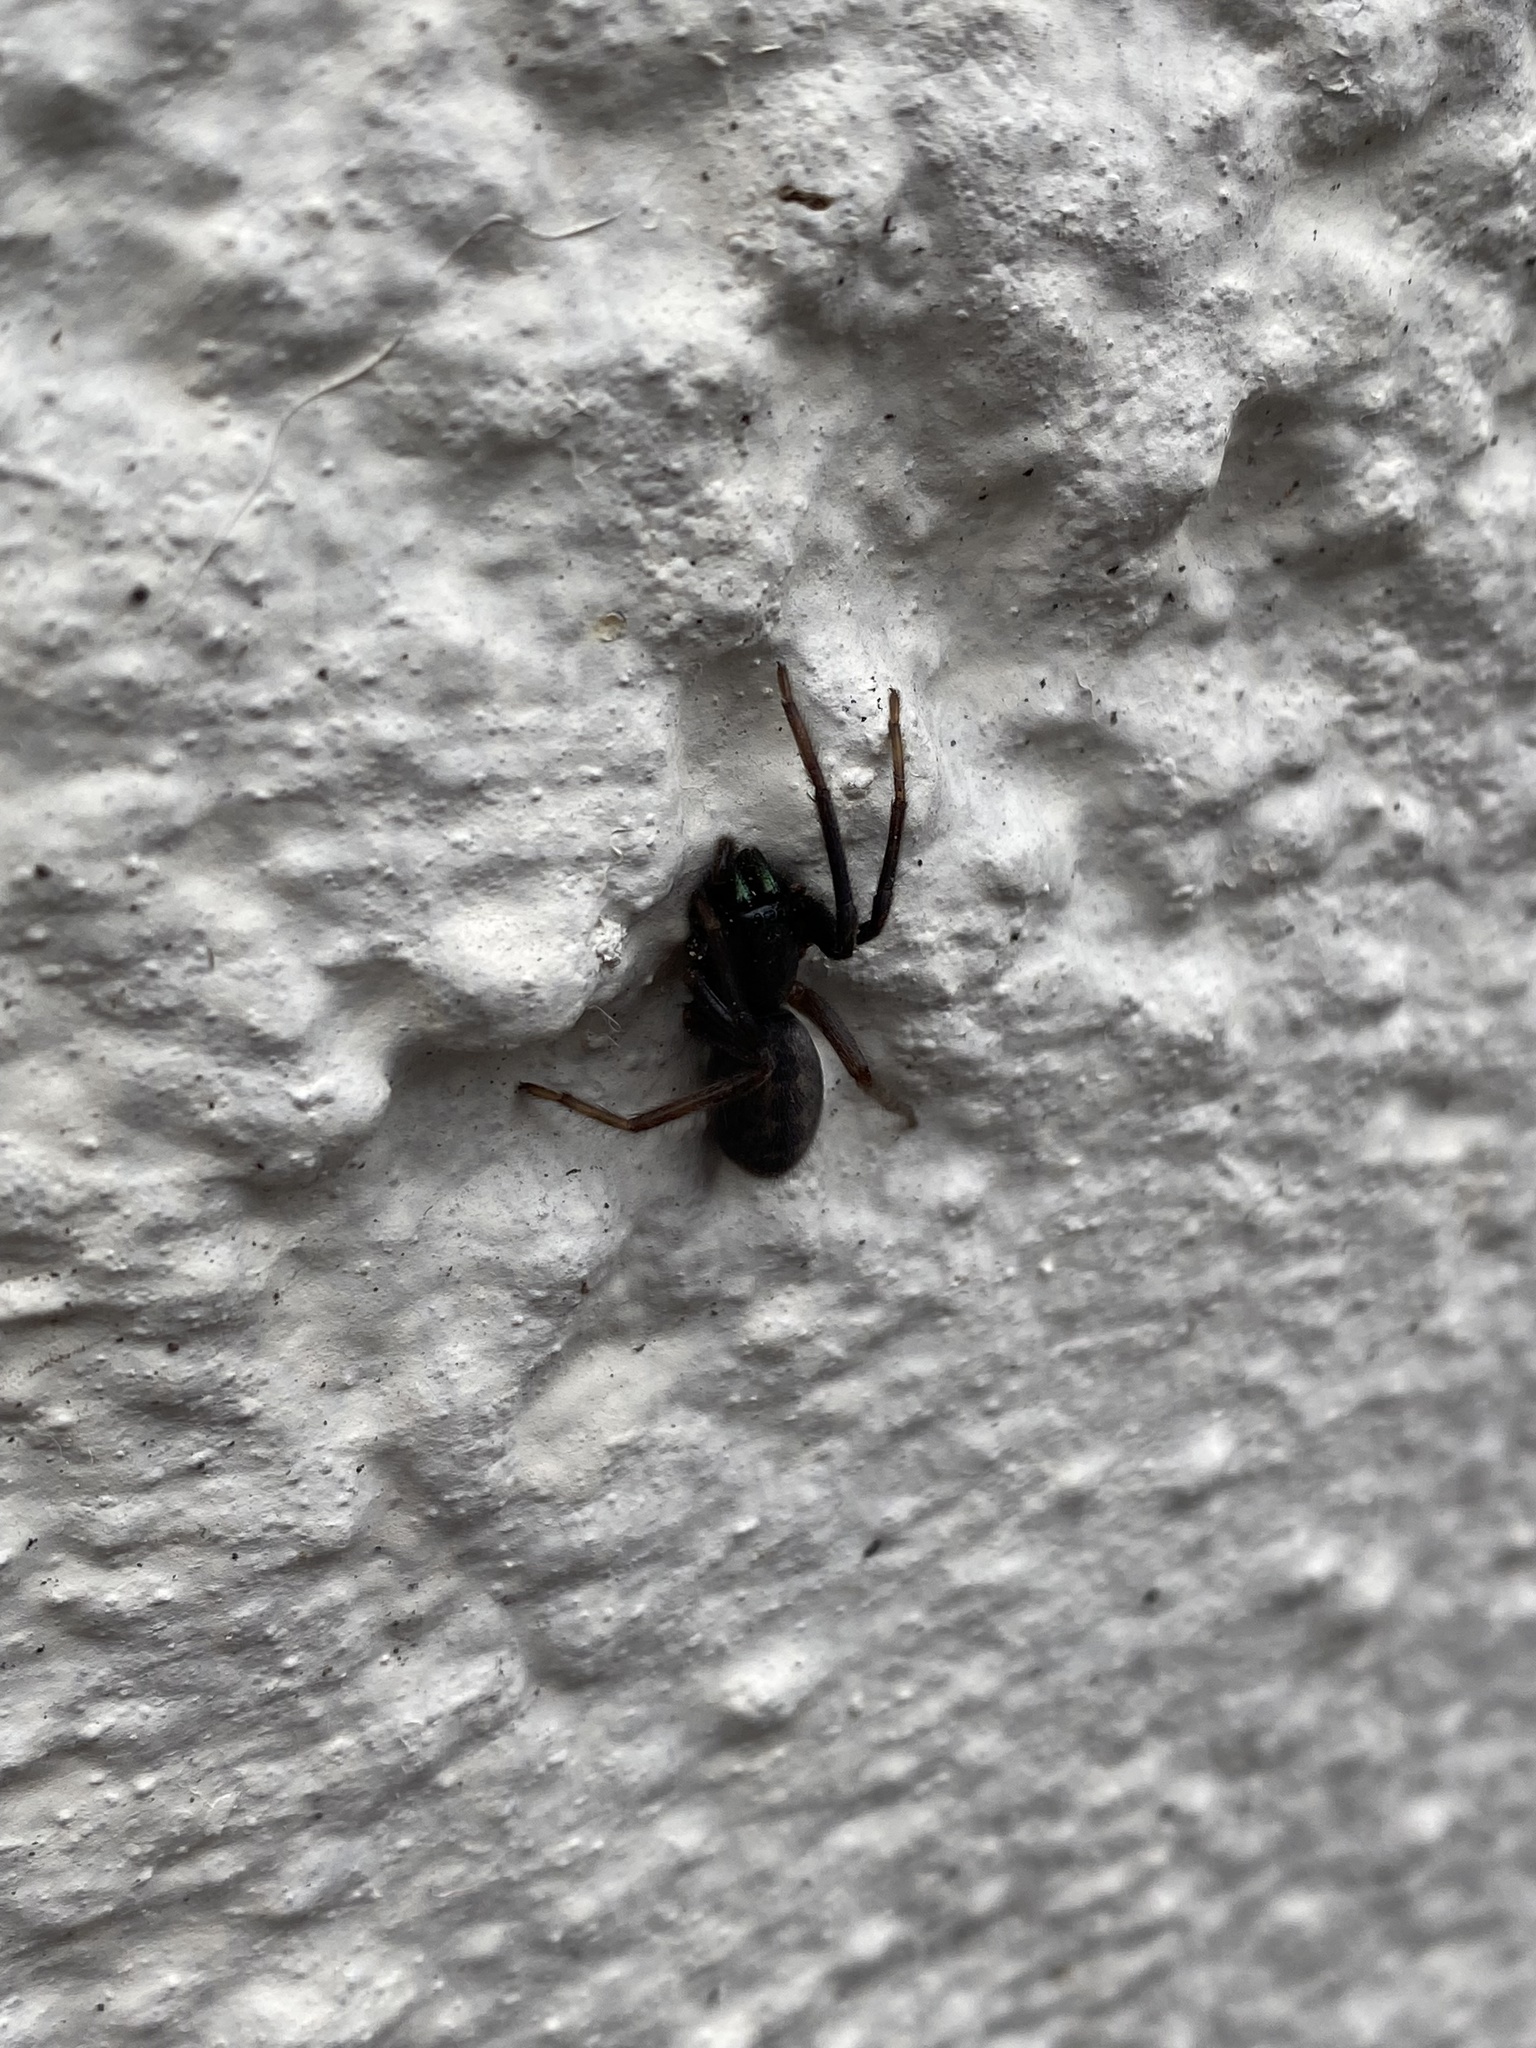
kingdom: Animalia
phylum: Arthropoda
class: Arachnida
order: Araneae
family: Segestriidae
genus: Segestria
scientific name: Segestria florentina
